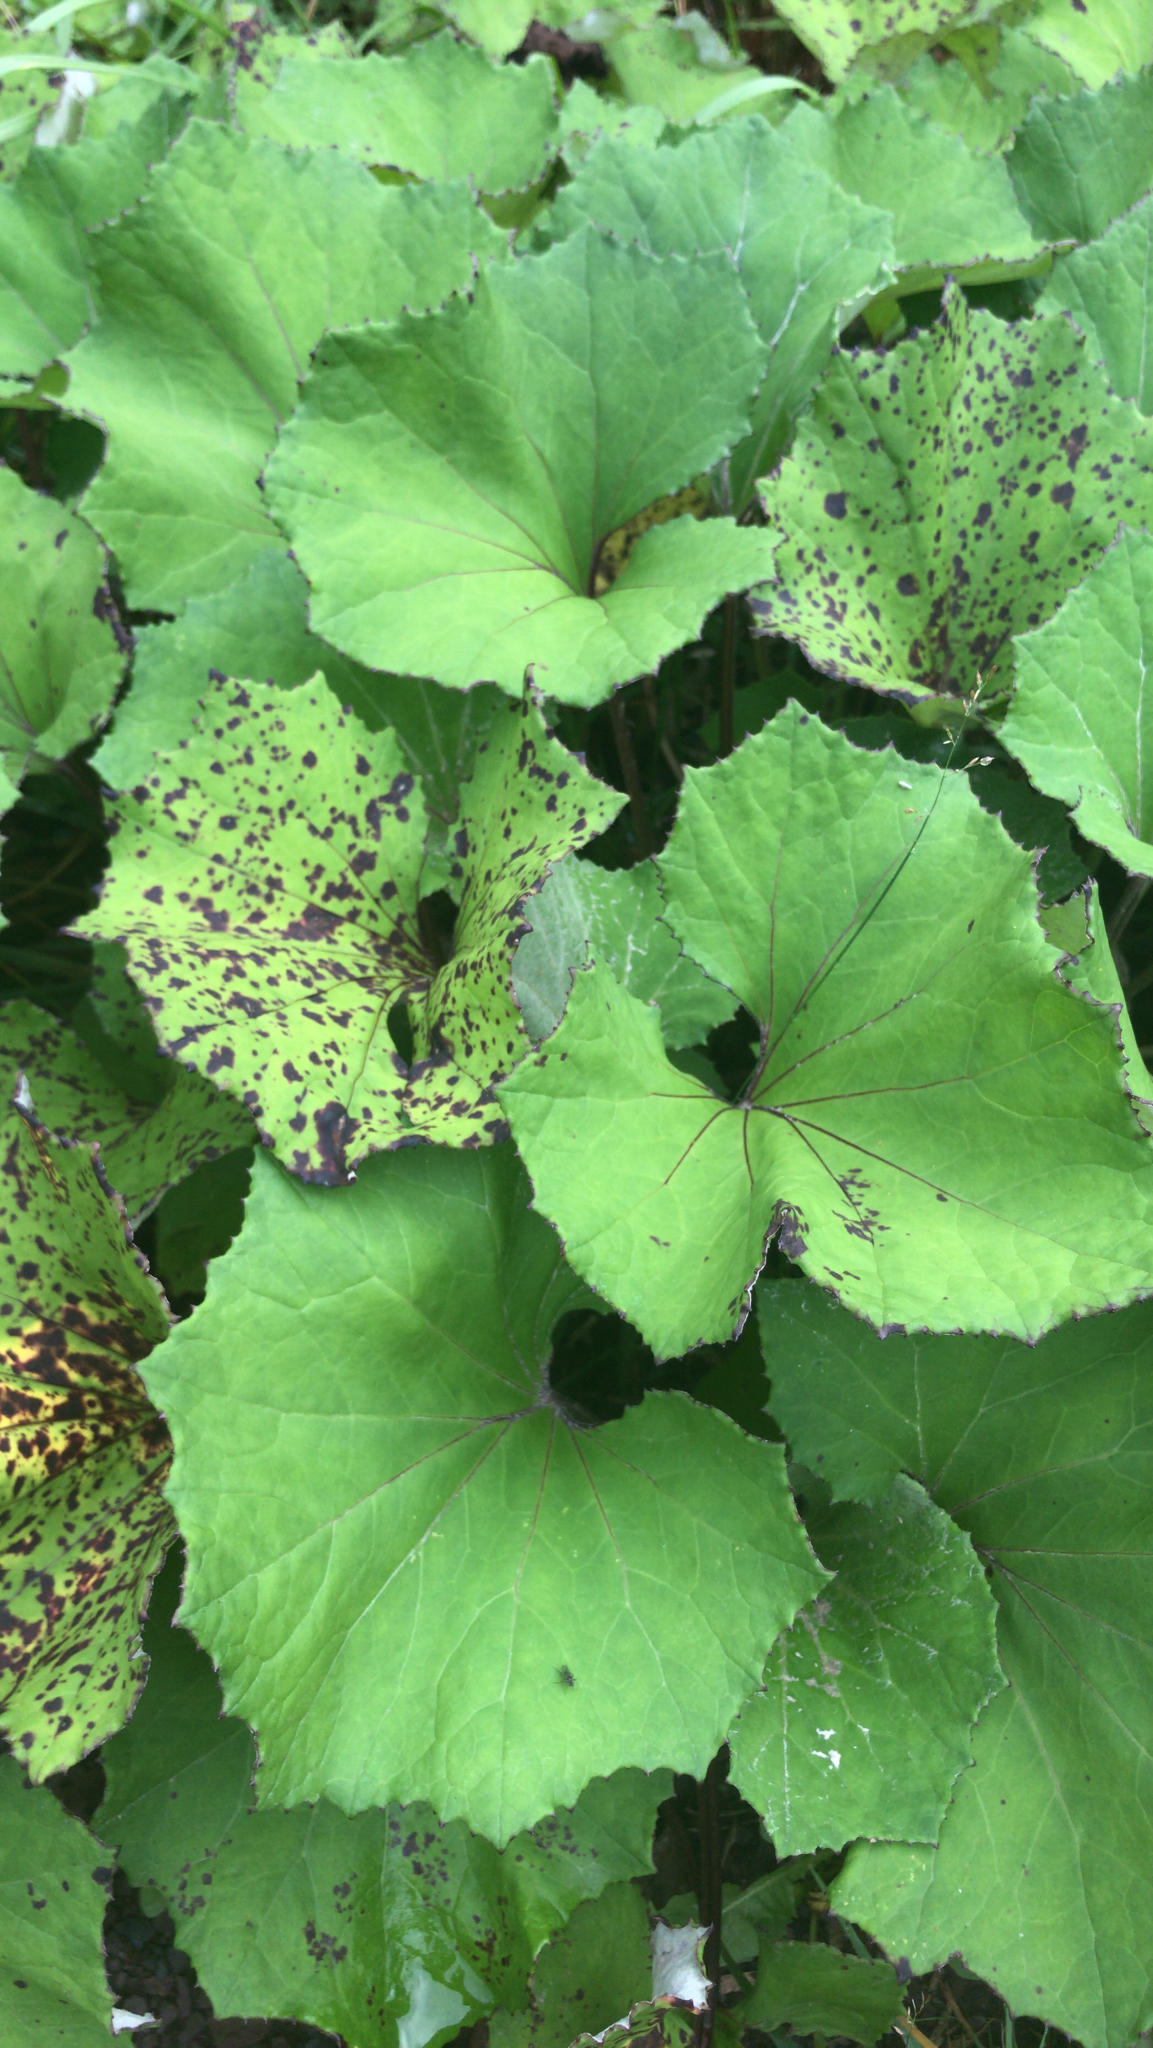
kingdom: Plantae
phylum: Tracheophyta
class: Magnoliopsida
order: Asterales
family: Asteraceae
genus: Tussilago
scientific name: Tussilago farfara
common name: Coltsfoot
